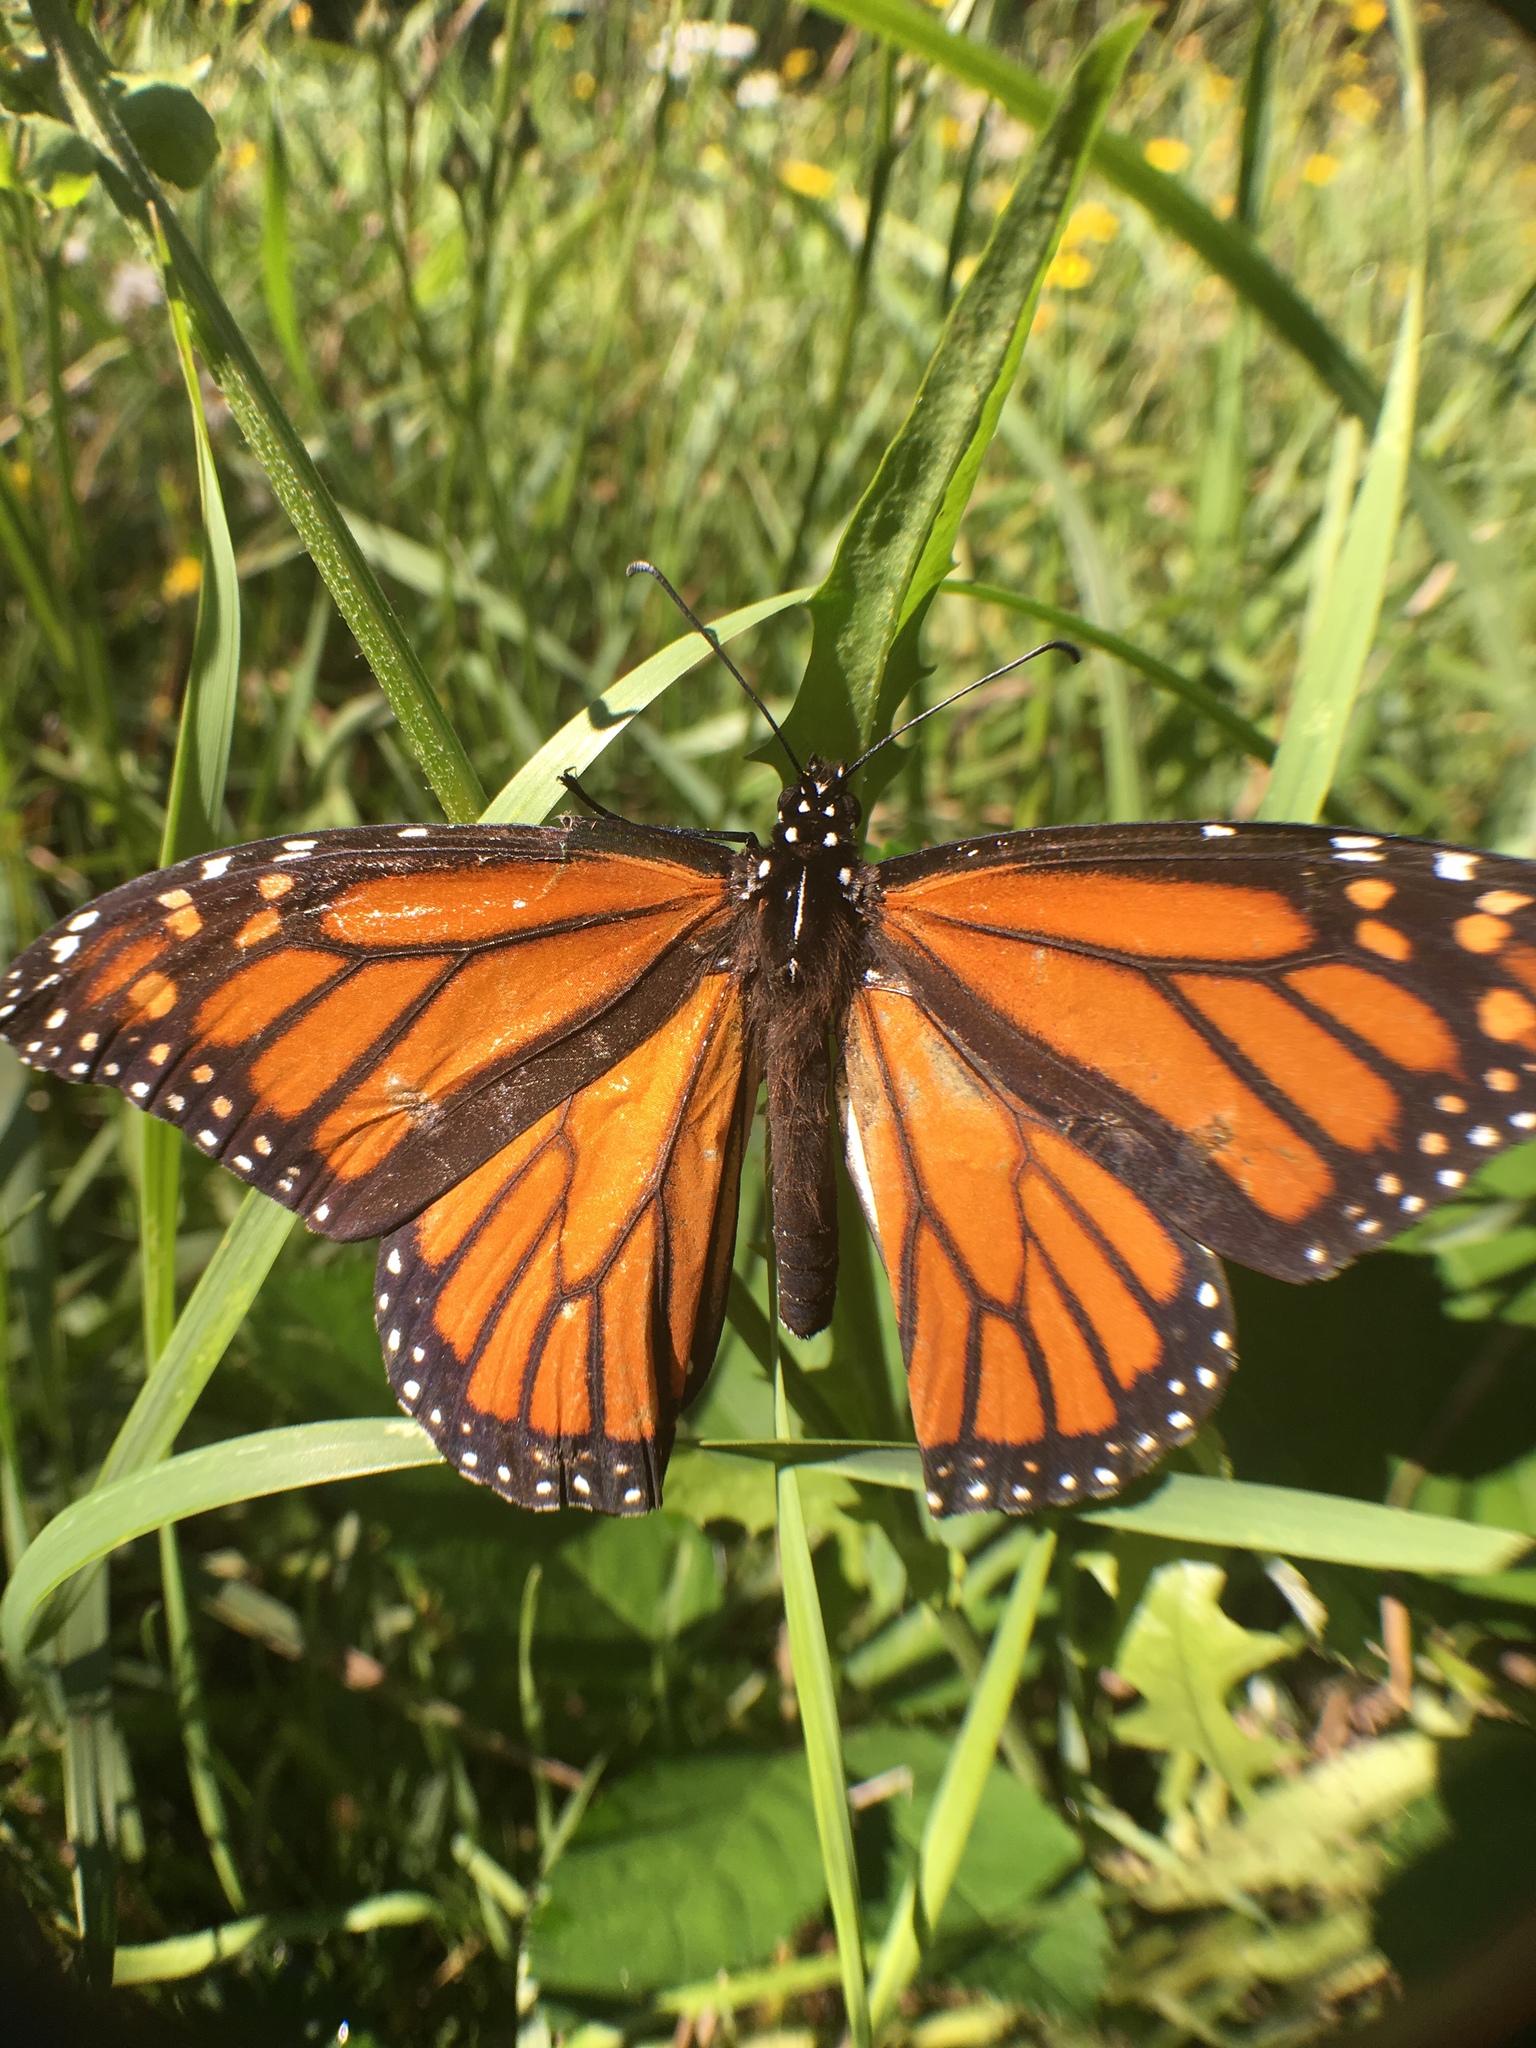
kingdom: Animalia
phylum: Arthropoda
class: Insecta
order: Lepidoptera
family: Nymphalidae
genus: Danaus
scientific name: Danaus plexippus
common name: Monarch
